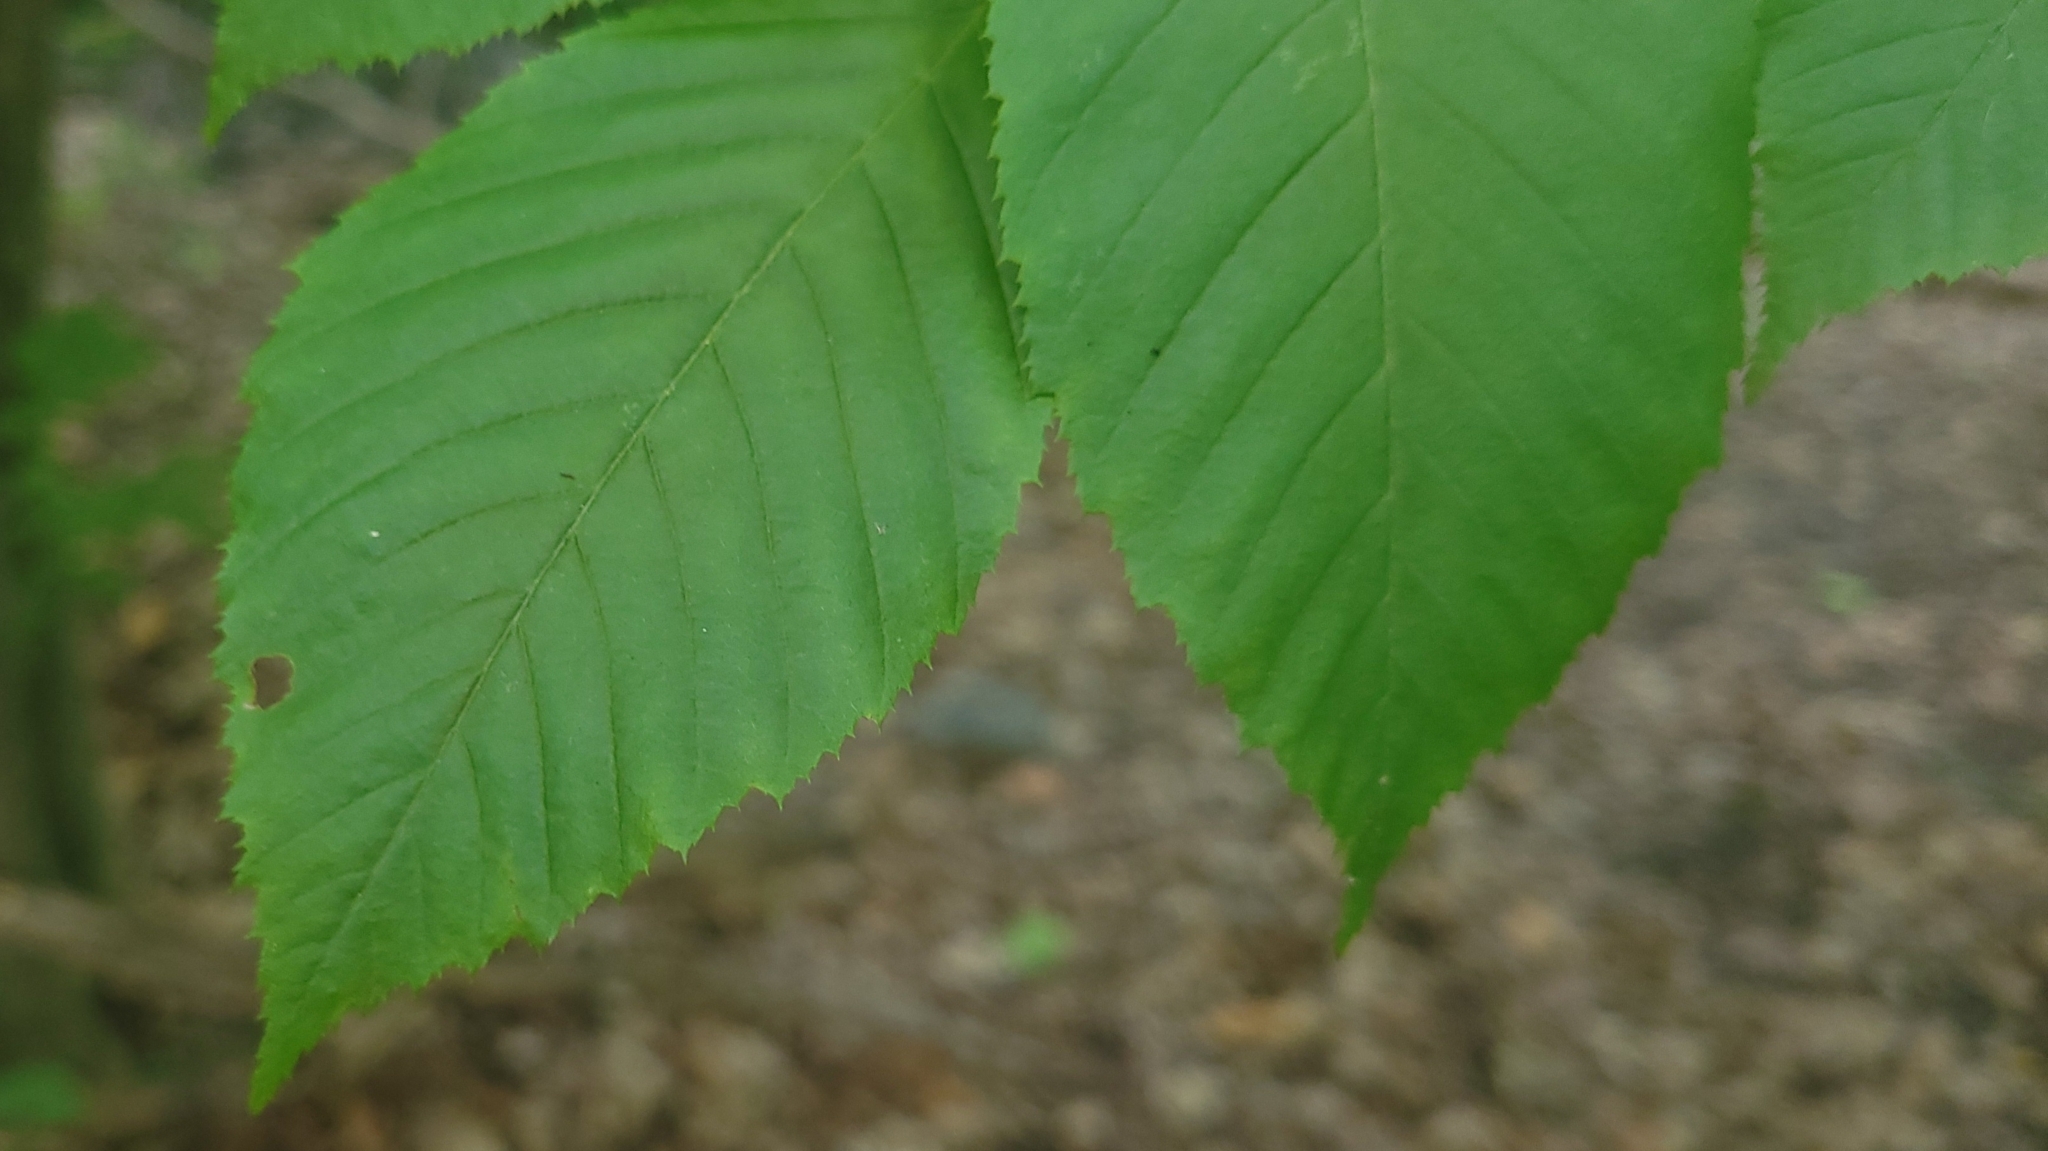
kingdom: Plantae
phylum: Tracheophyta
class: Magnoliopsida
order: Fagales
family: Betulaceae
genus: Carpinus
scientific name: Carpinus caroliniana
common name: American hornbeam
